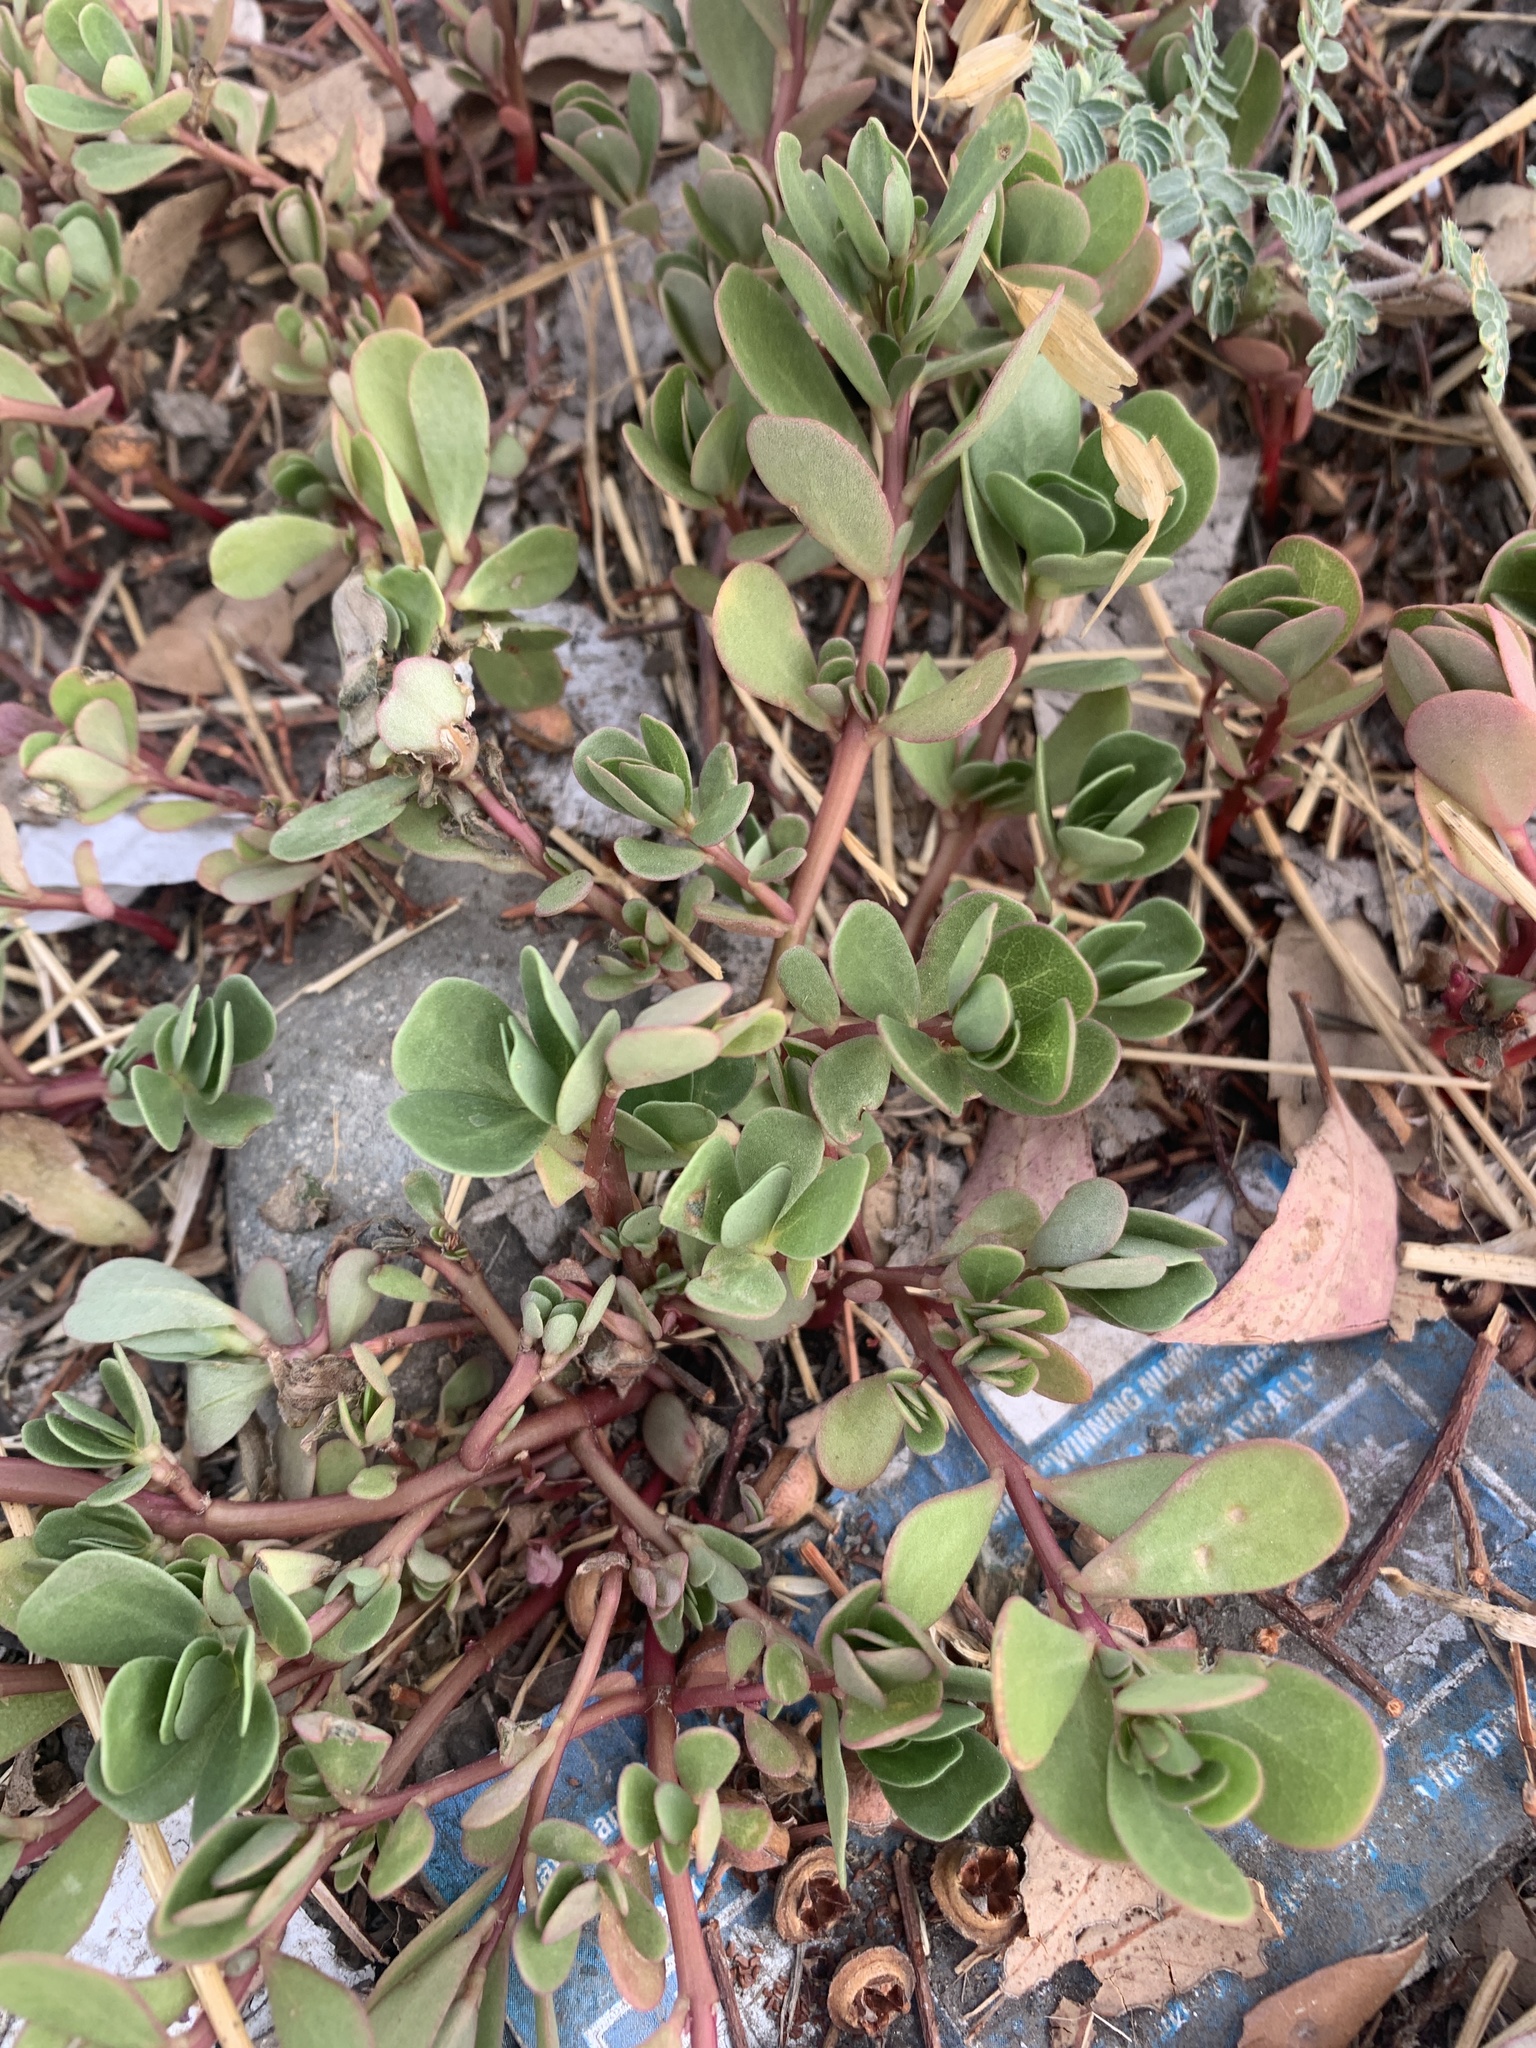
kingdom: Plantae
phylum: Tracheophyta
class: Magnoliopsida
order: Caryophyllales
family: Portulacaceae
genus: Portulaca
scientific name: Portulaca oleracea
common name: Common purslane
